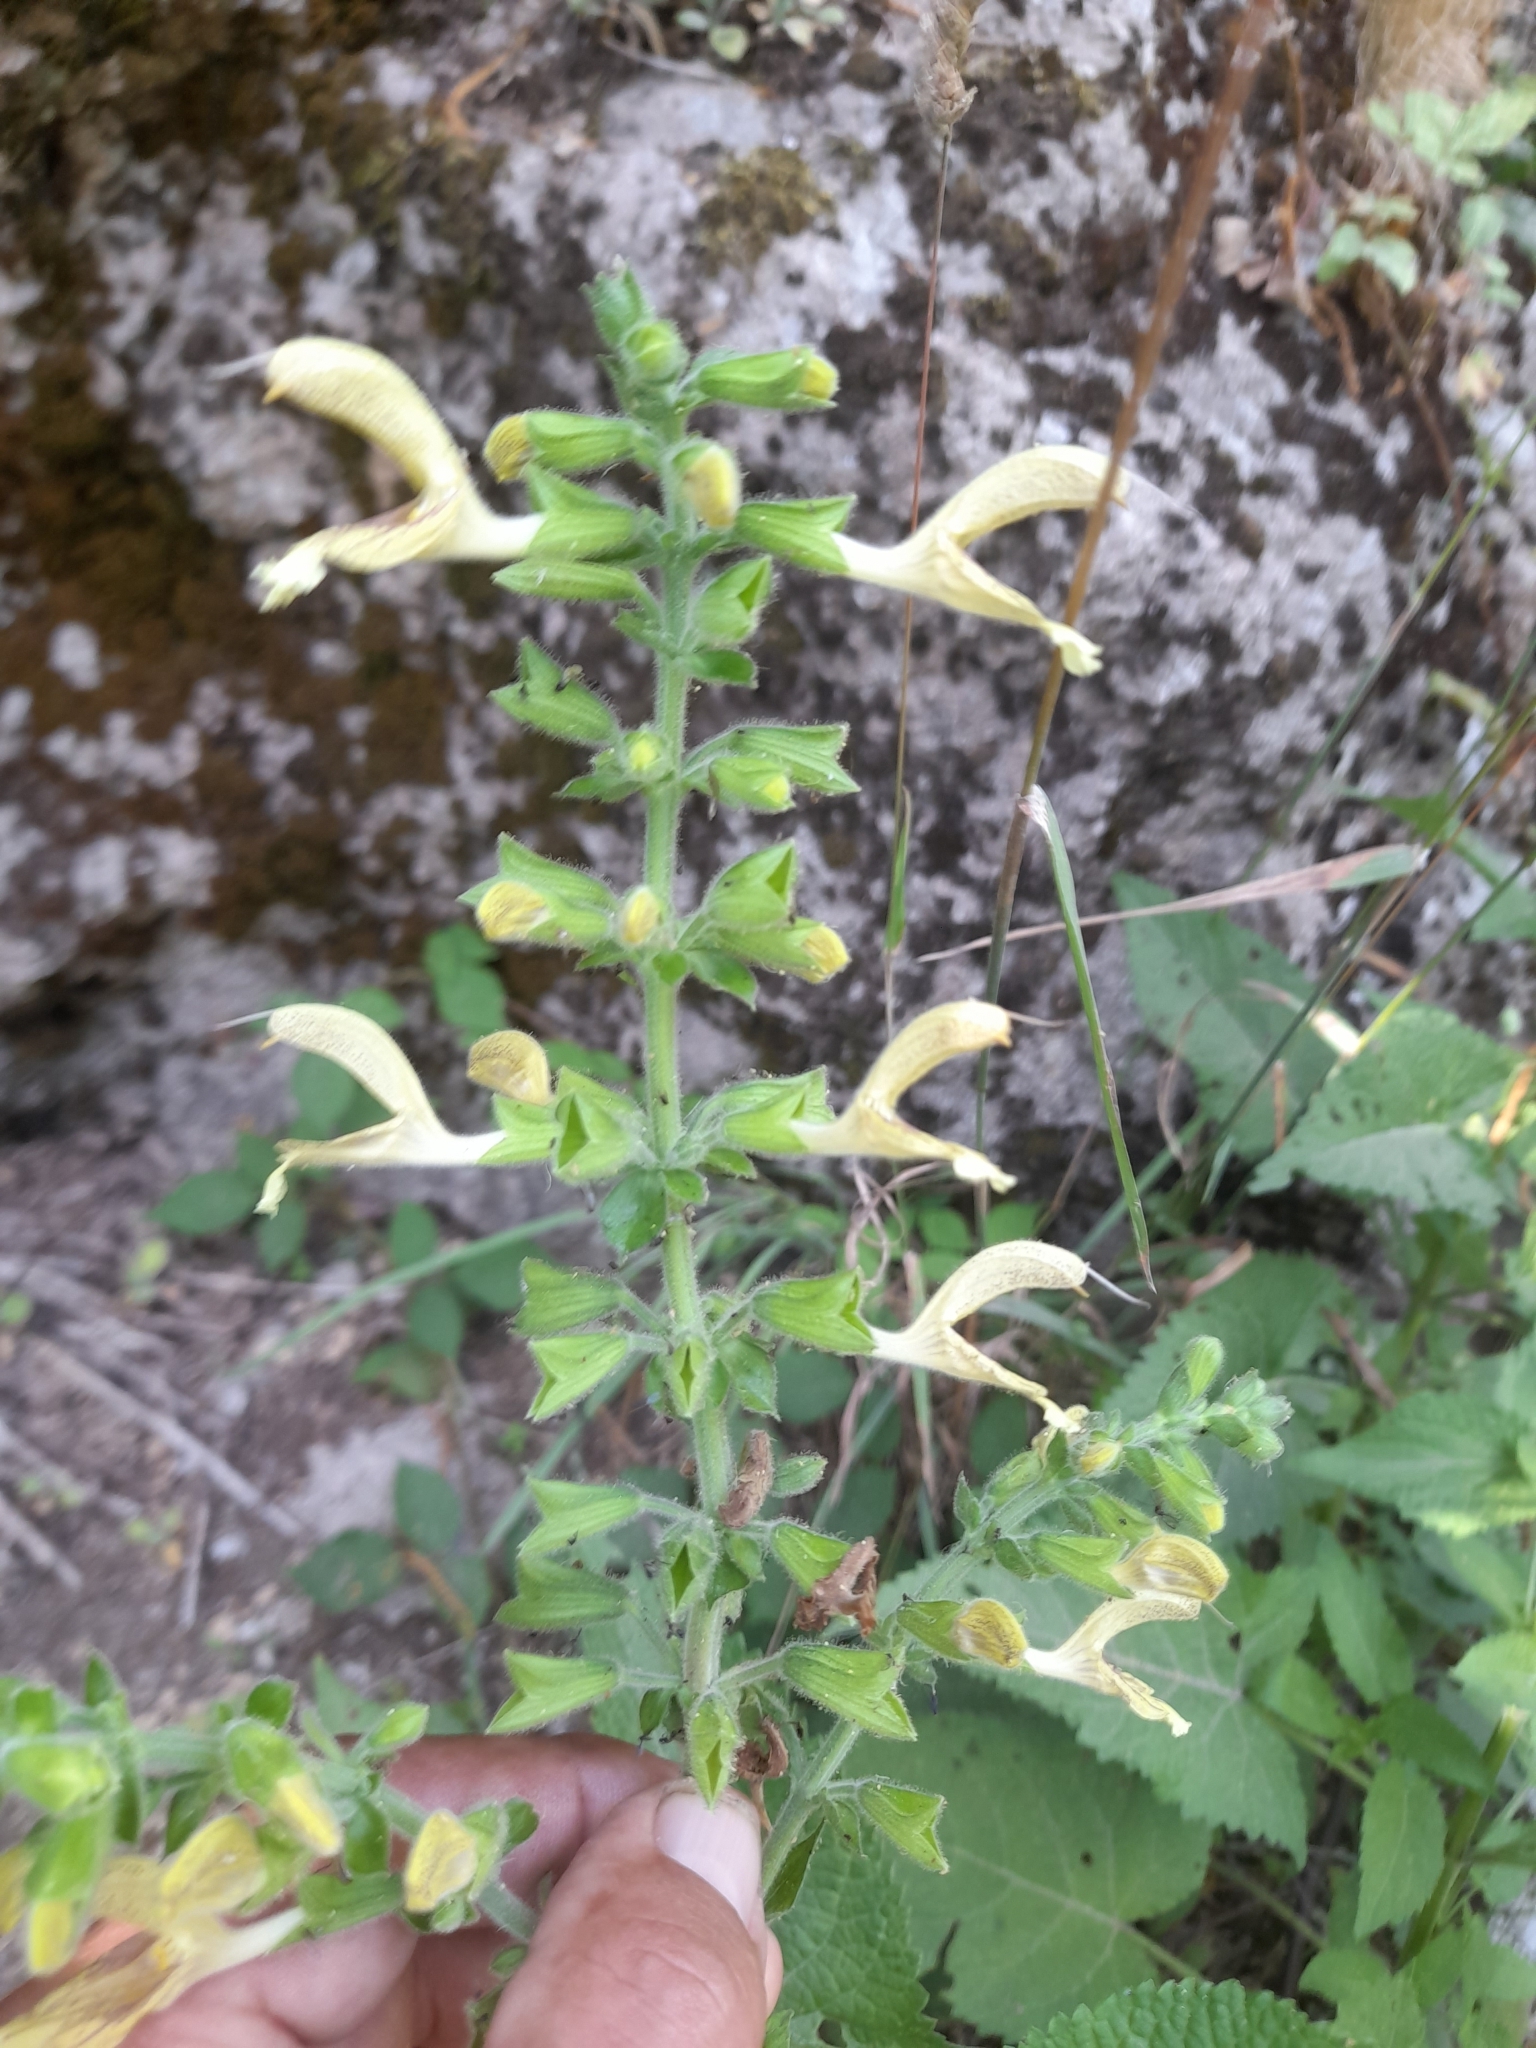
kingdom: Plantae
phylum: Tracheophyta
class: Magnoliopsida
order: Lamiales
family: Lamiaceae
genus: Salvia
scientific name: Salvia glutinosa
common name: Sticky clary
